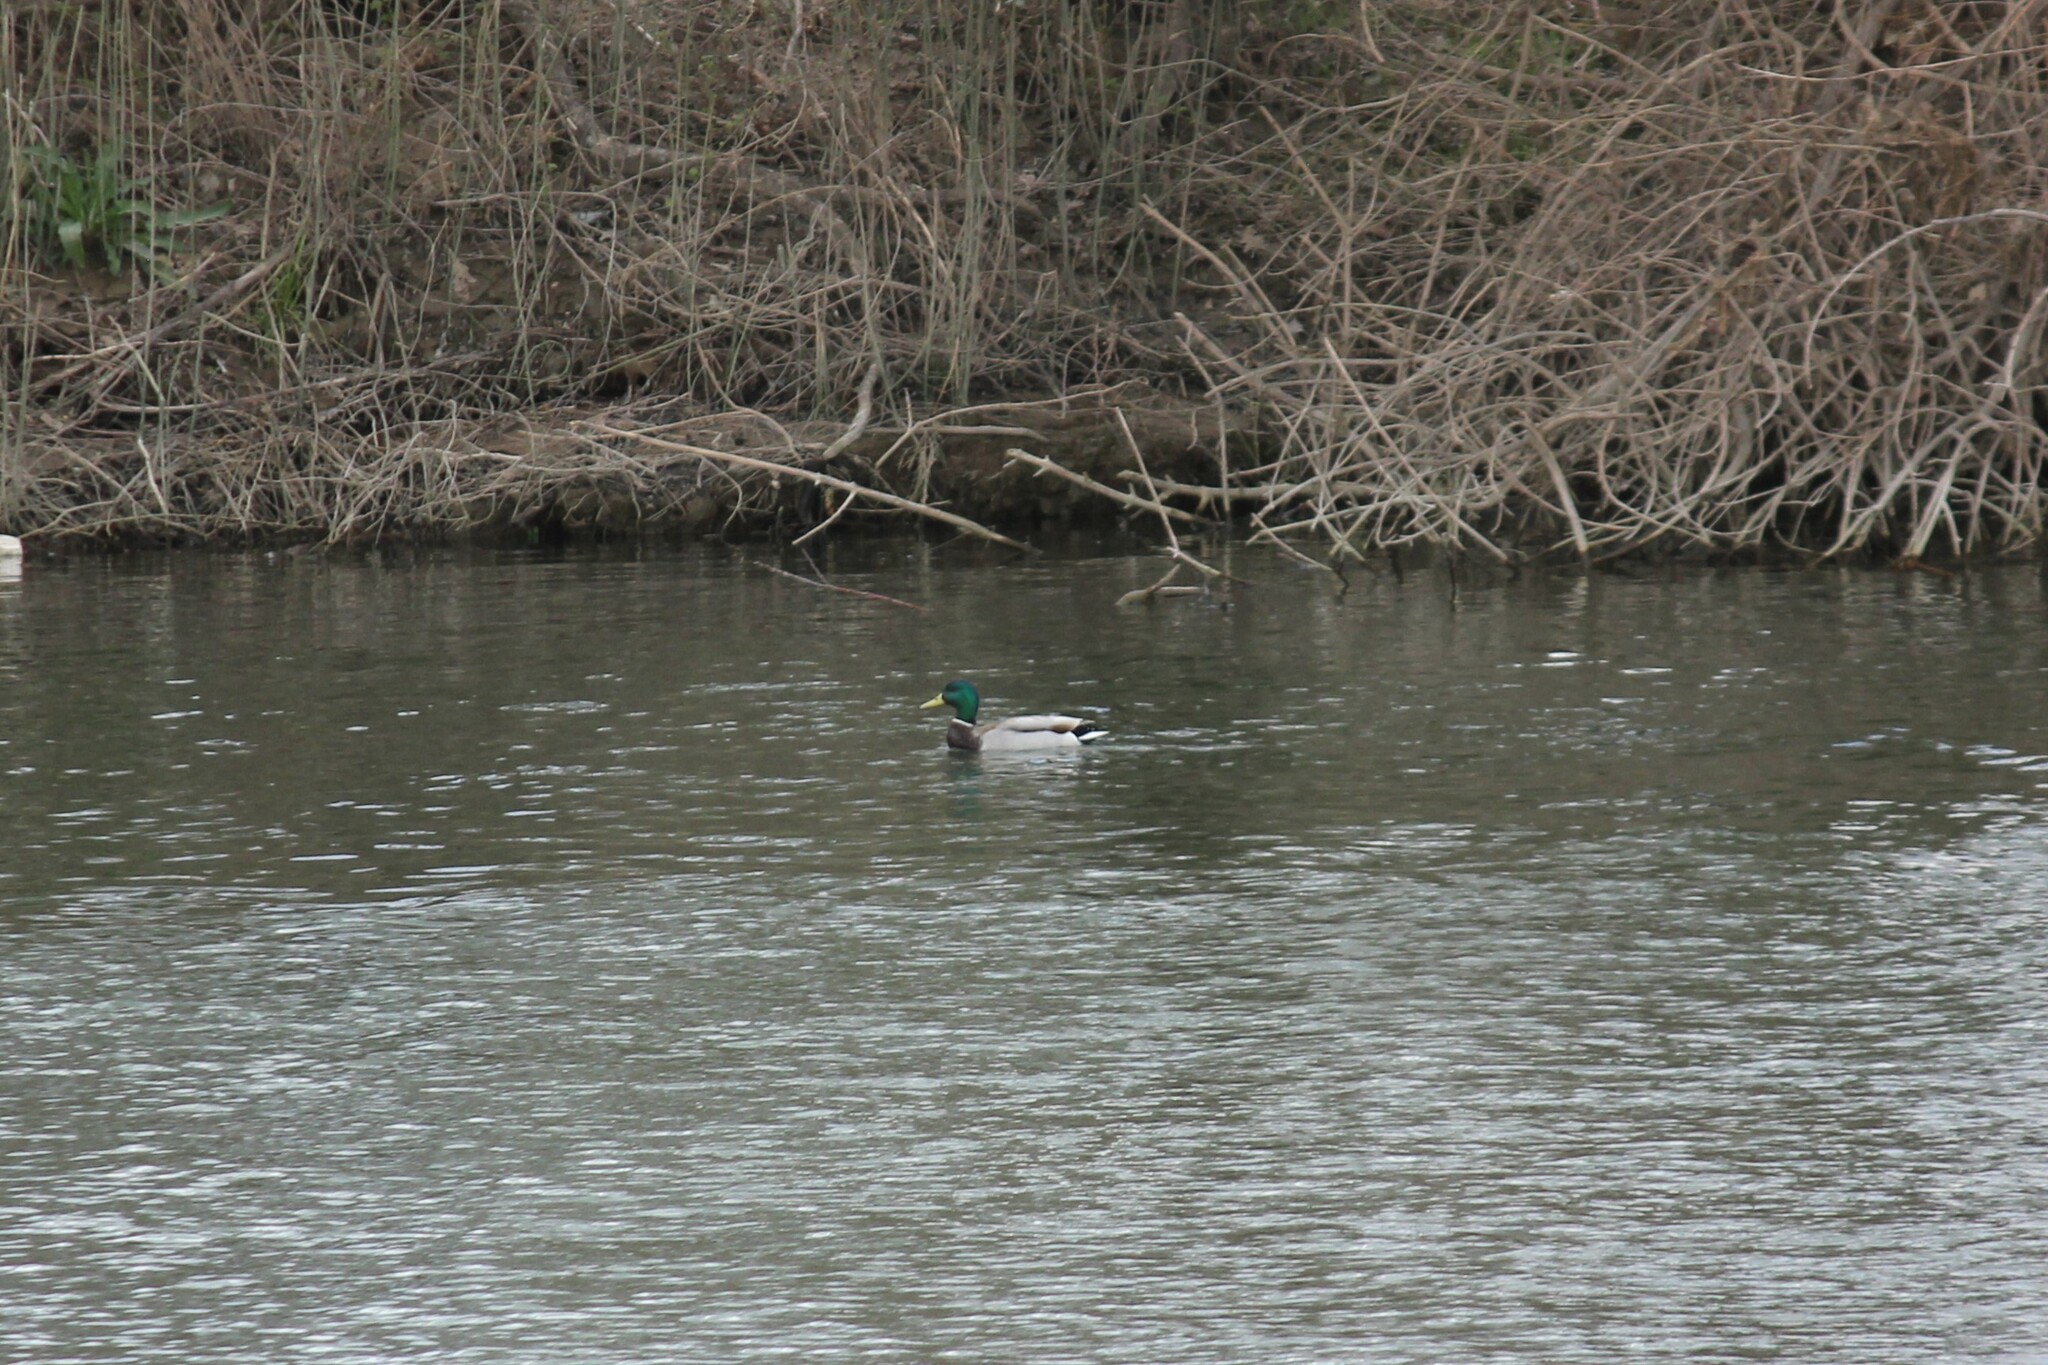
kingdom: Animalia
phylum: Chordata
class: Aves
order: Anseriformes
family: Anatidae
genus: Anas
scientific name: Anas platyrhynchos
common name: Mallard
